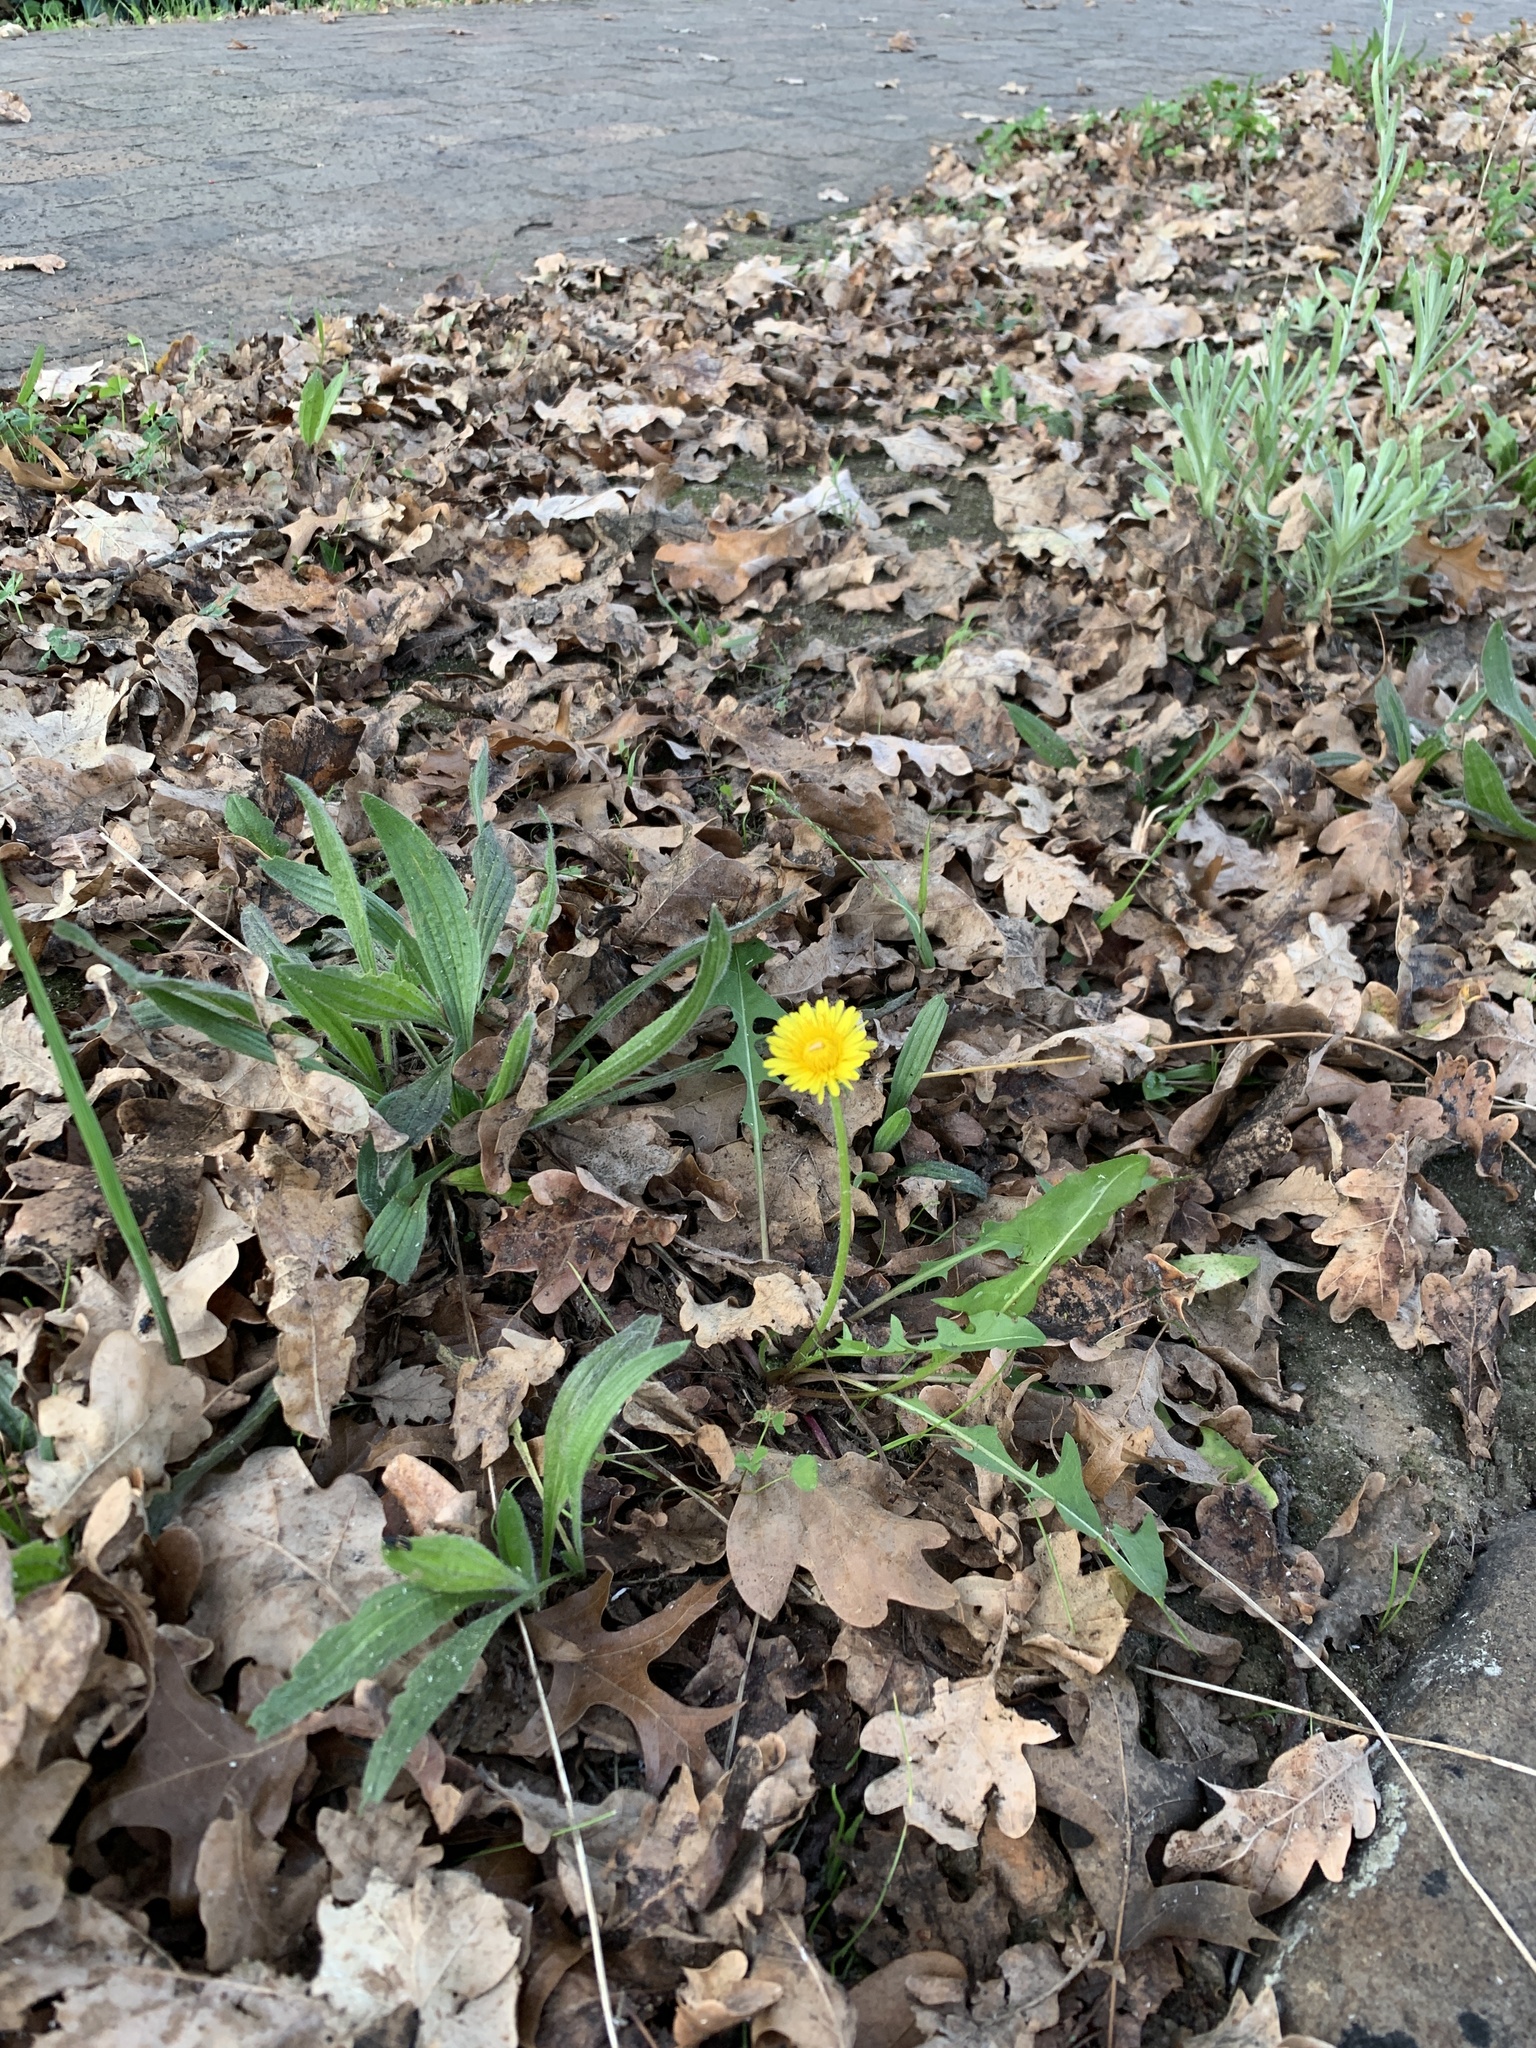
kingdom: Plantae
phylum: Tracheophyta
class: Magnoliopsida
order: Asterales
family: Asteraceae
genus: Taraxacum
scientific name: Taraxacum officinale
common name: Common dandelion
